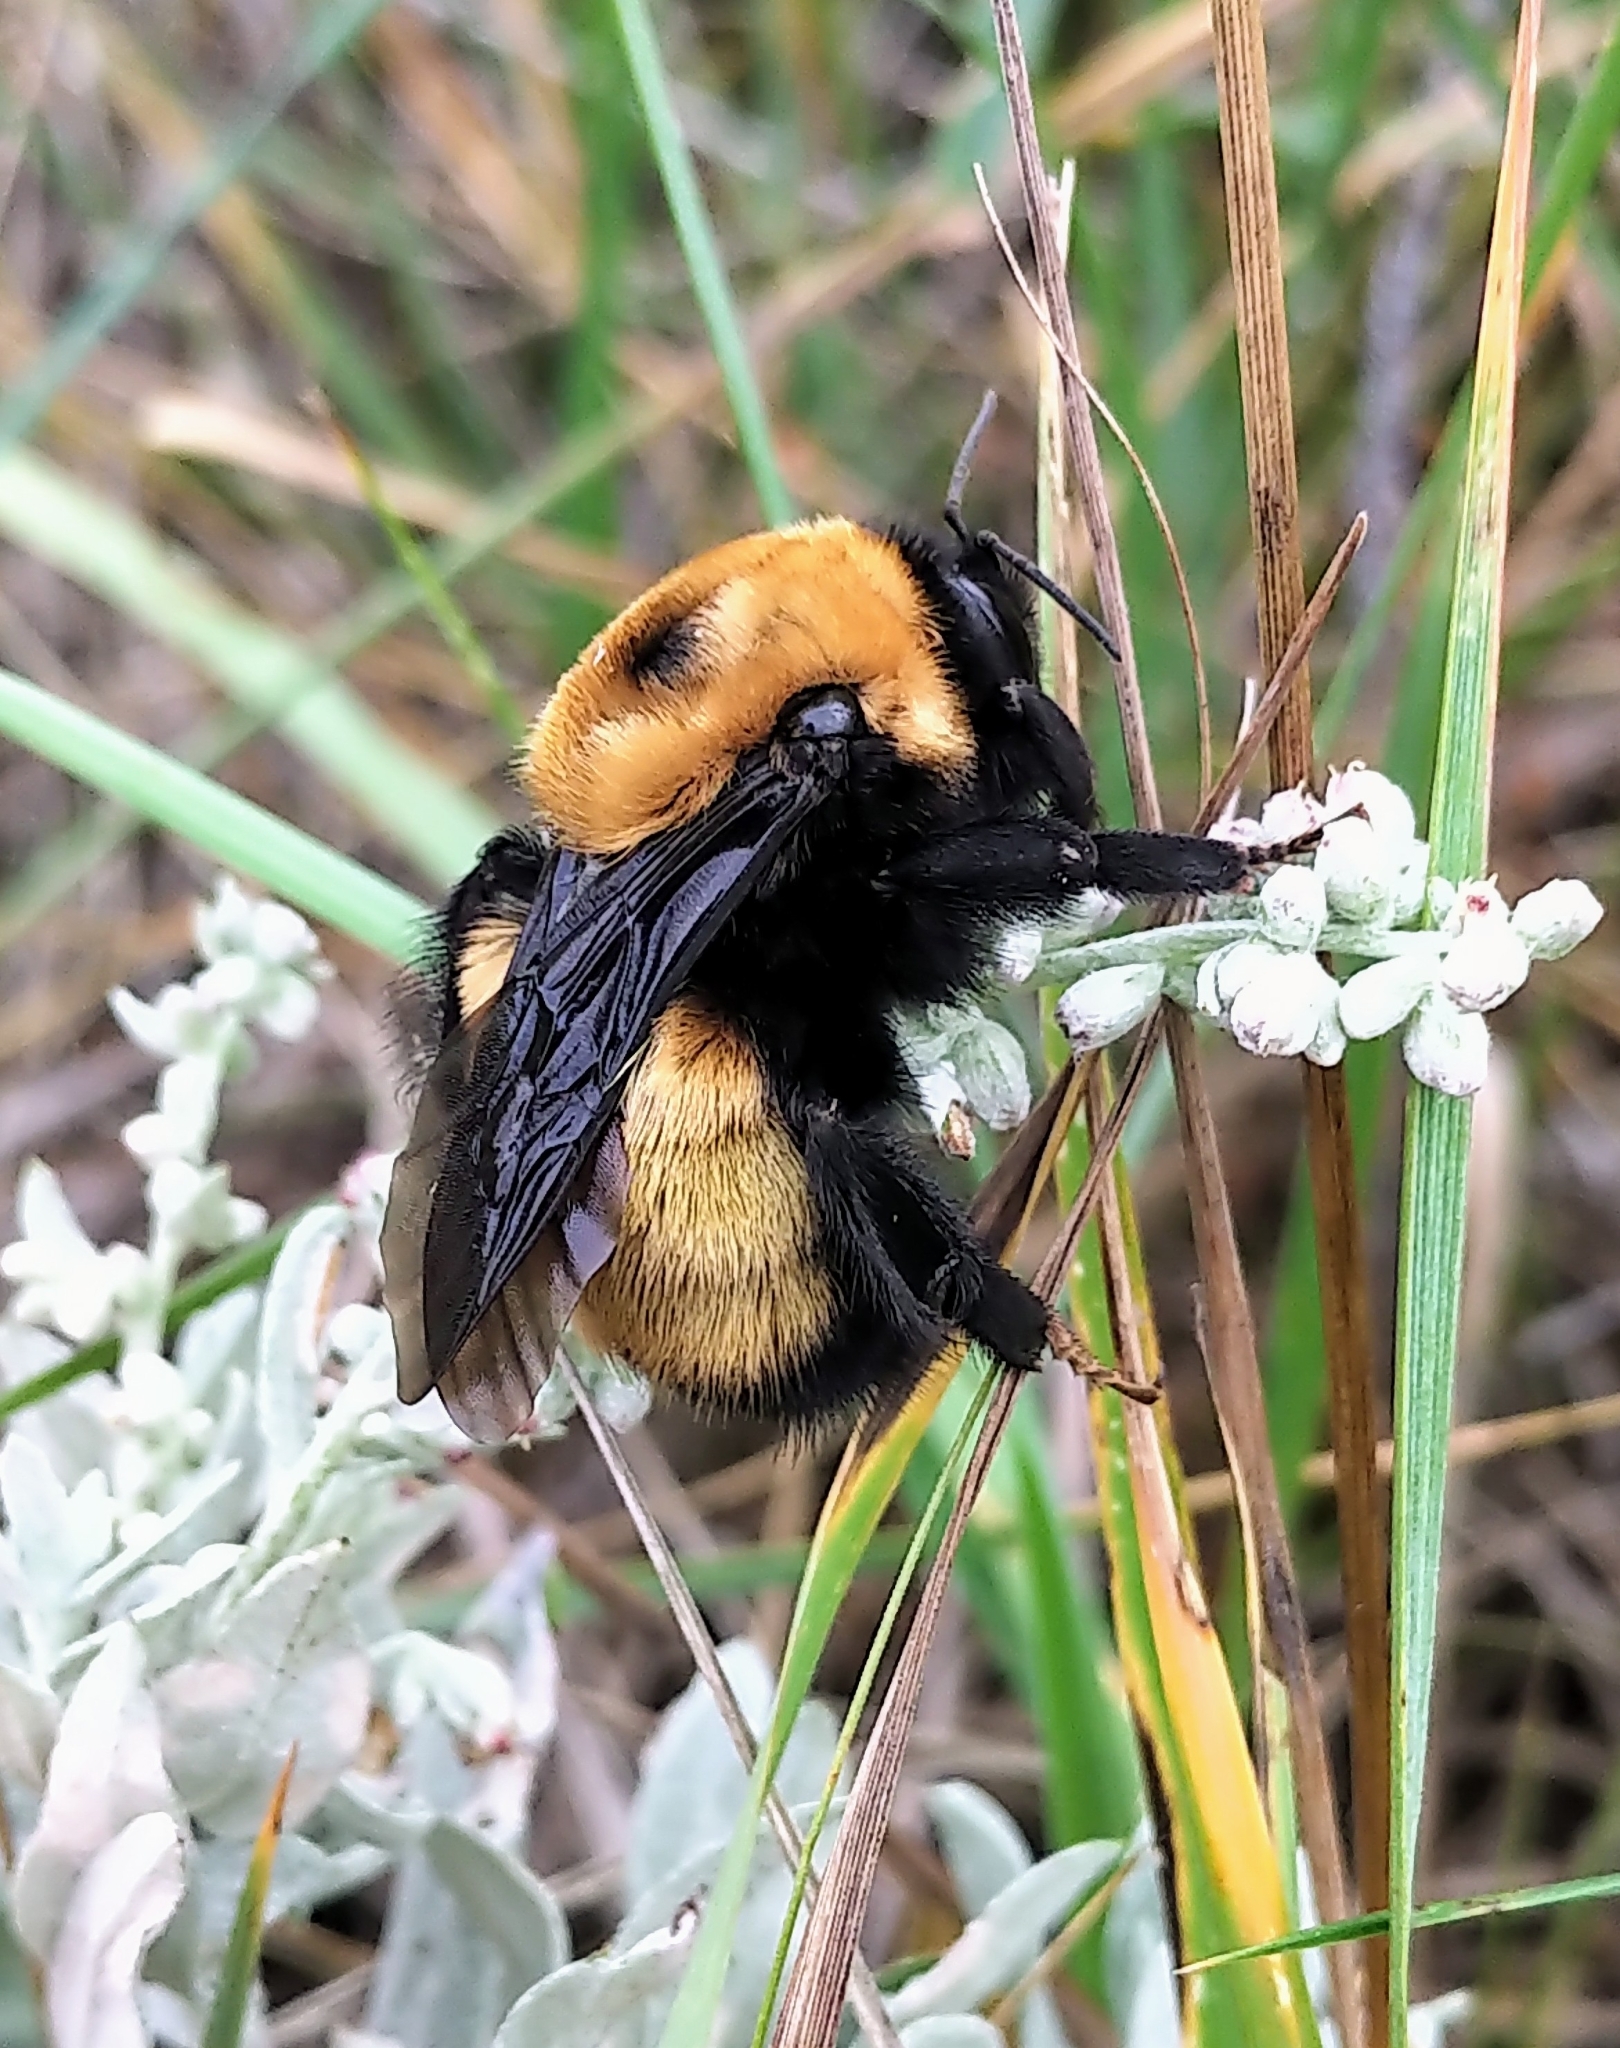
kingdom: Animalia
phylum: Arthropoda
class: Insecta
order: Hymenoptera
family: Apidae
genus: Bombus
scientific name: Bombus nevadensis
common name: Nevada bumble bee
